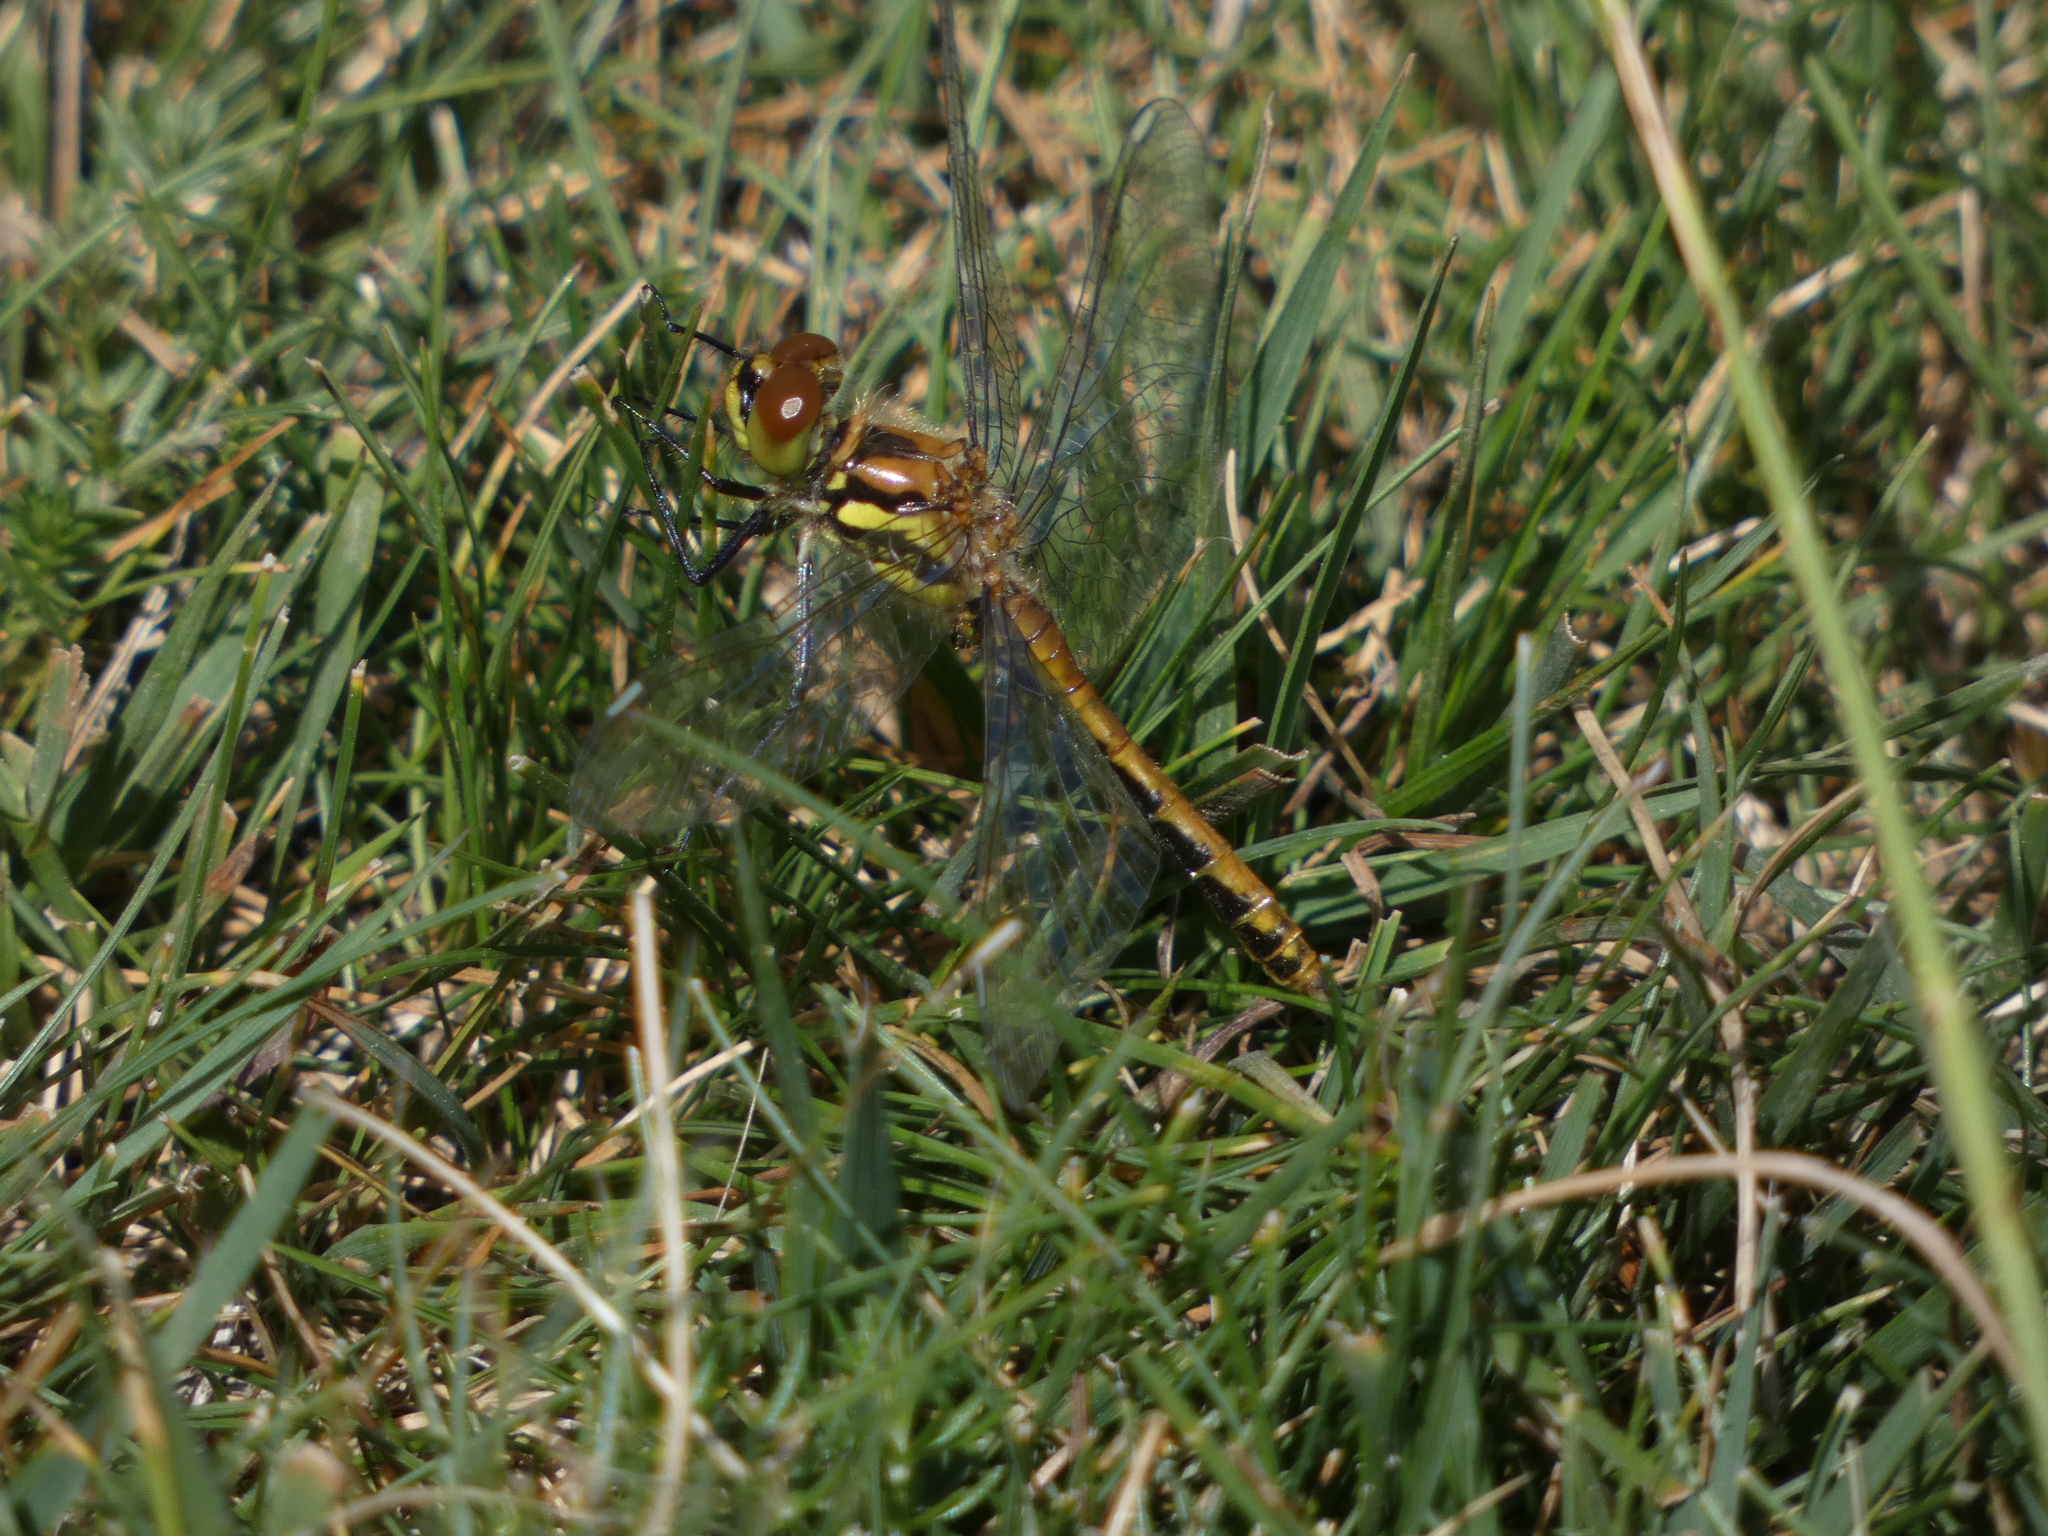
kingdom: Animalia
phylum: Arthropoda
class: Insecta
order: Odonata
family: Libellulidae
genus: Sympetrum
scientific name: Sympetrum danae
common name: Black darter
